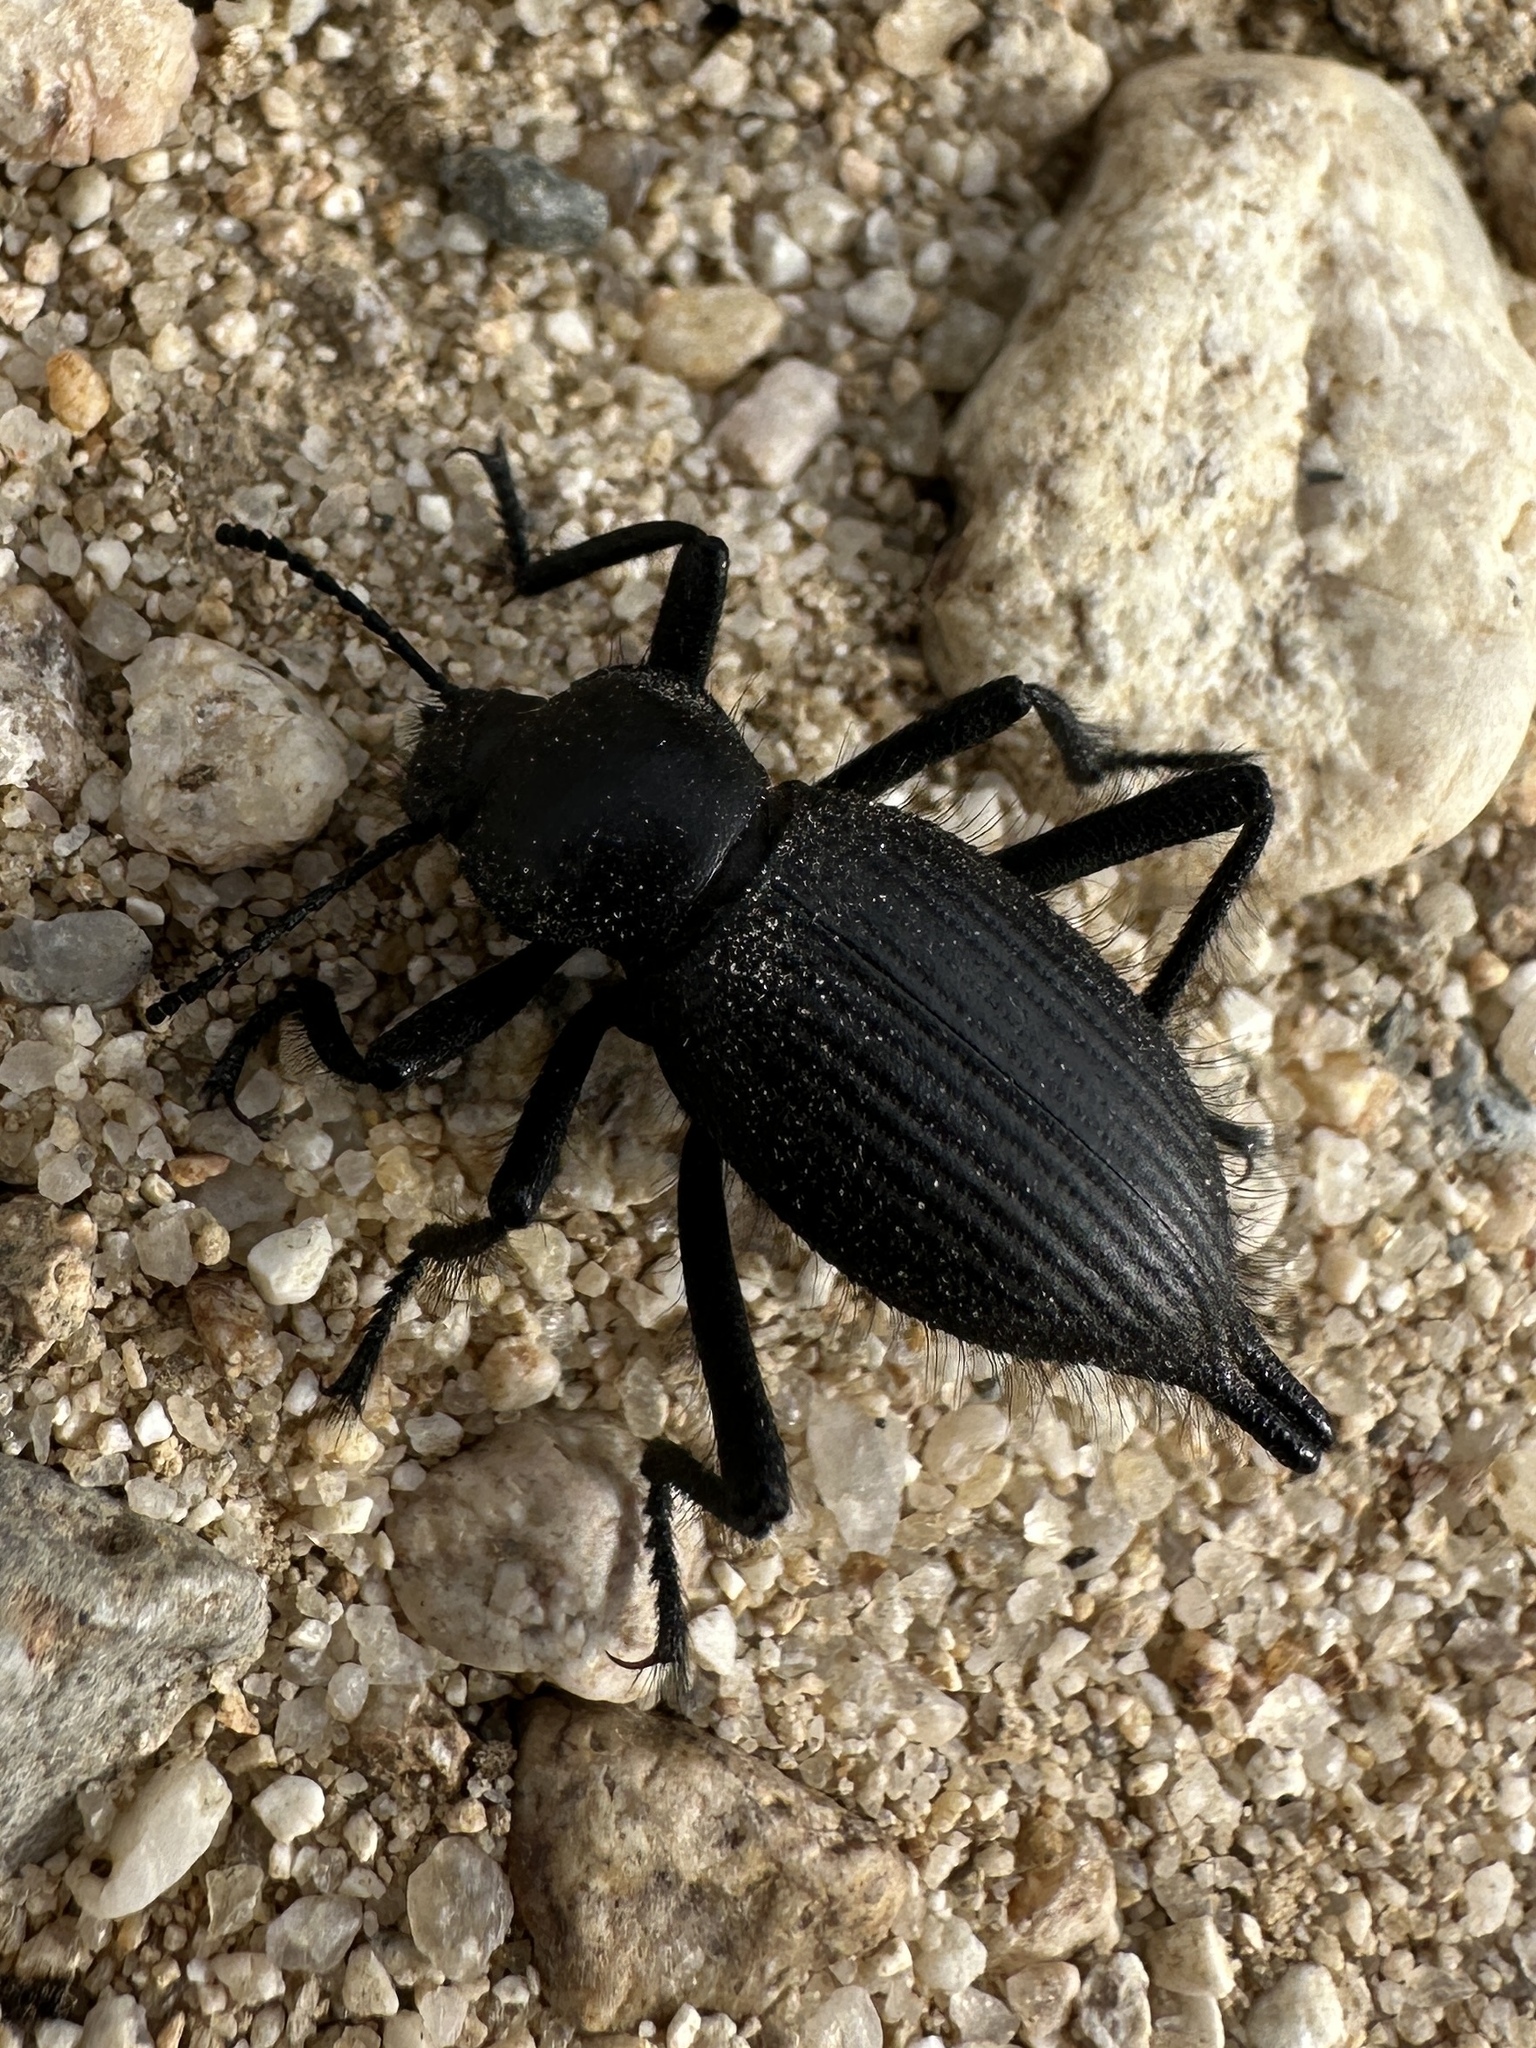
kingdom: Animalia
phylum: Arthropoda
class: Insecta
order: Coleoptera
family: Tenebrionidae
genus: Eleodes
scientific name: Eleodes longipilosa
